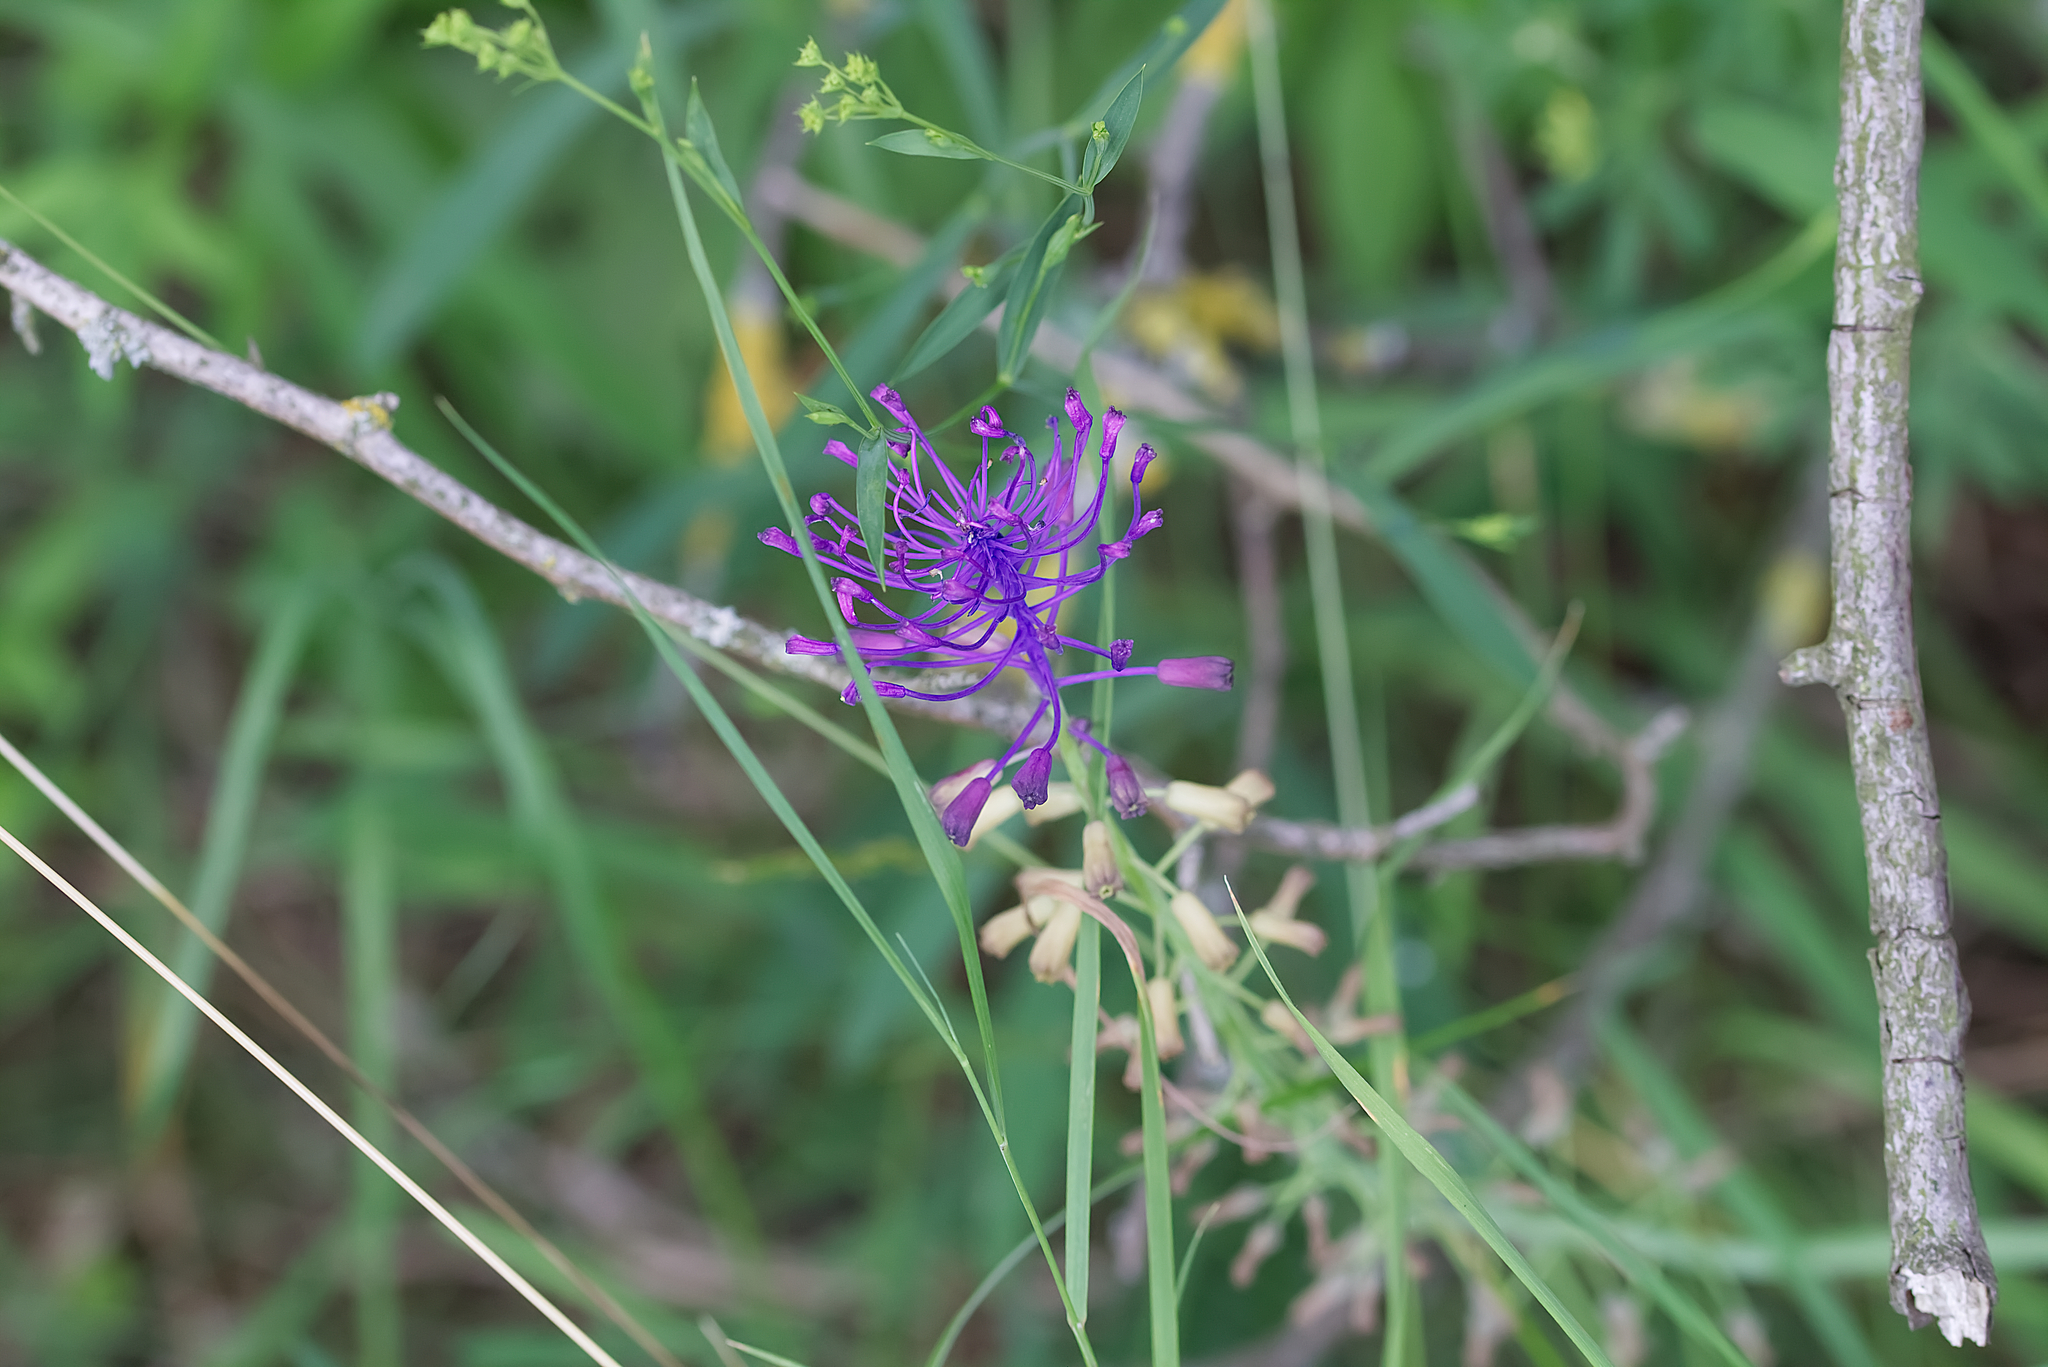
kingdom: Plantae
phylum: Tracheophyta
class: Liliopsida
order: Asparagales
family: Asparagaceae
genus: Muscari
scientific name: Muscari comosum
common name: Tassel hyacinth
